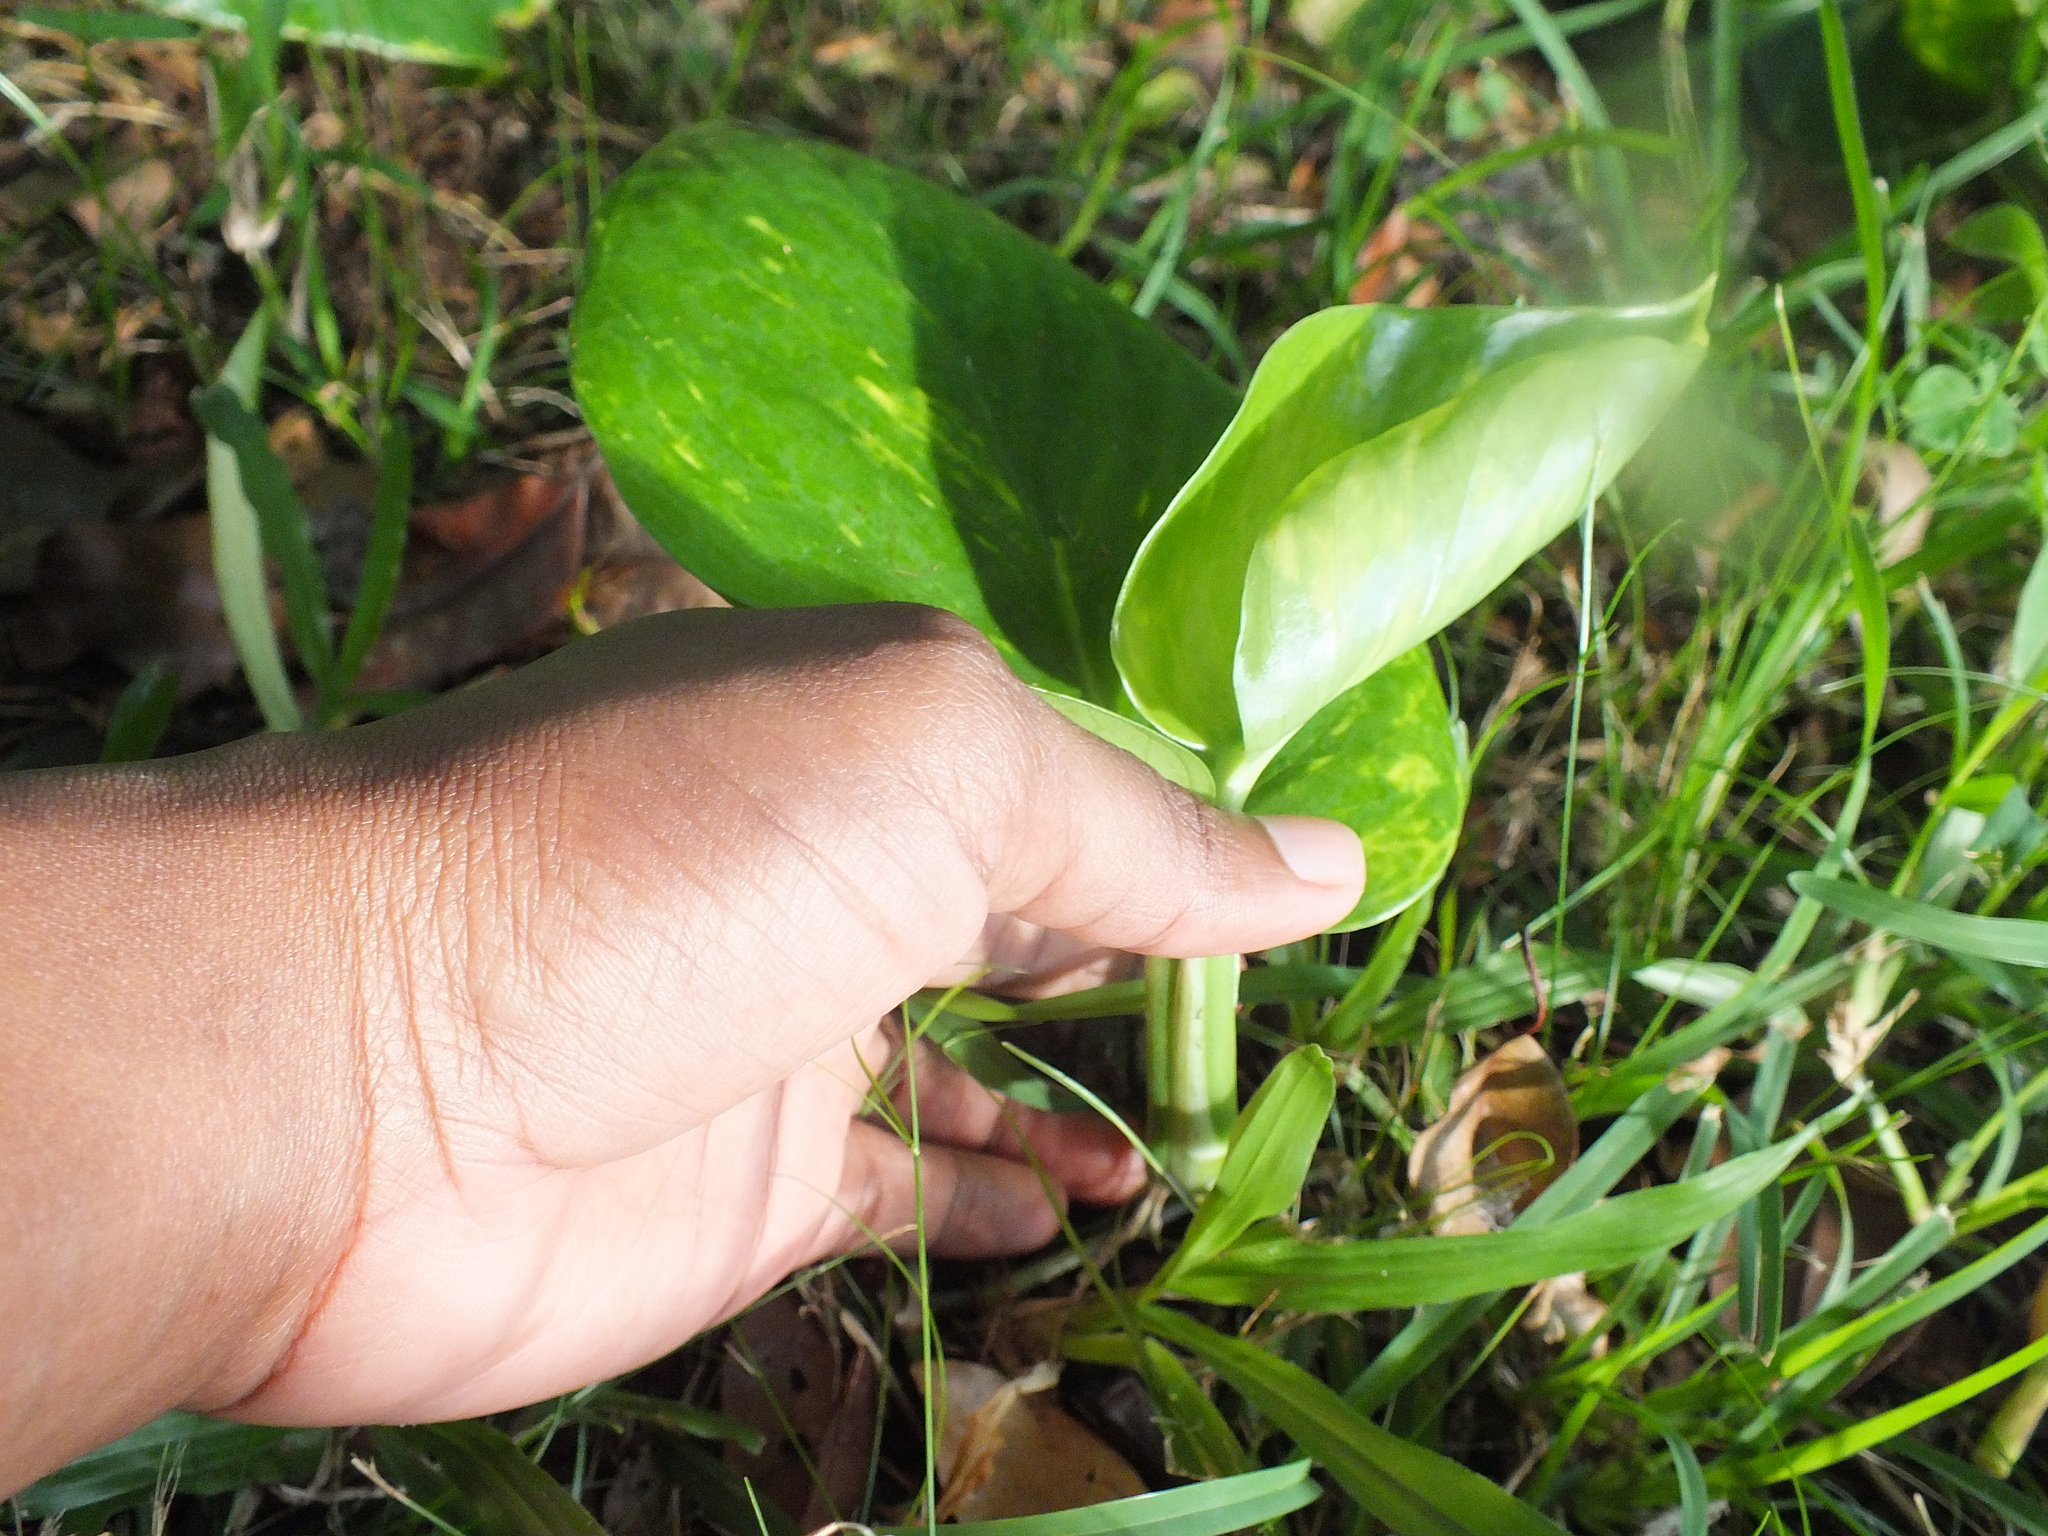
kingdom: Plantae
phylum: Tracheophyta
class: Liliopsida
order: Alismatales
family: Araceae
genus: Epipremnum
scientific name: Epipremnum aureum
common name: Golden hunter's-robe
